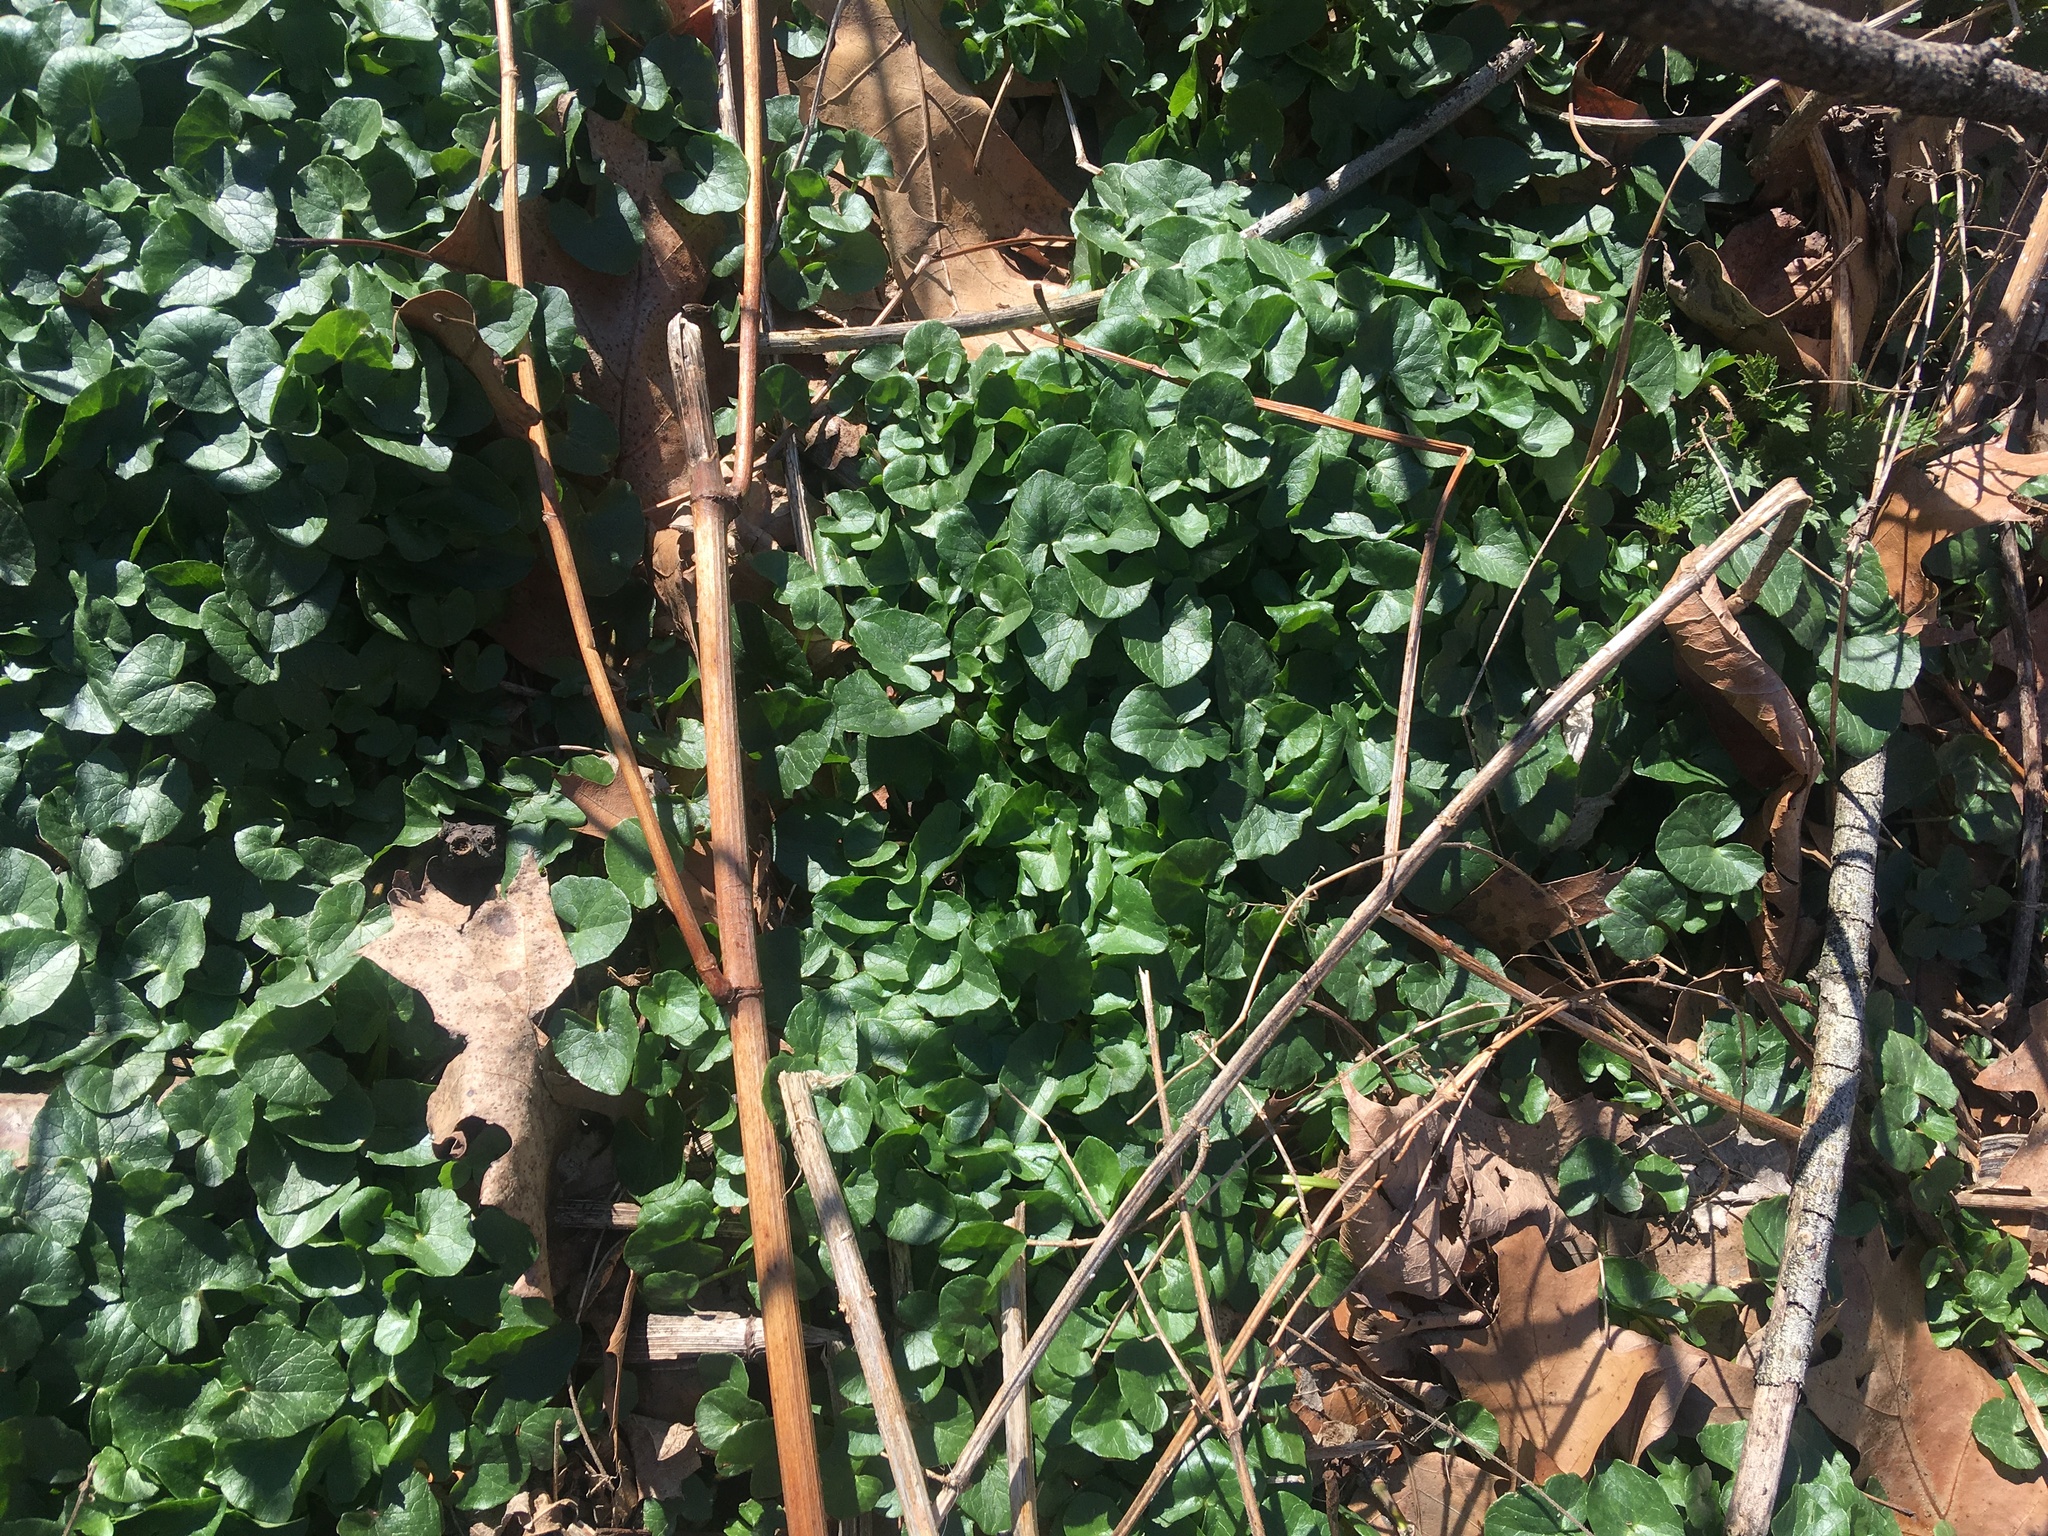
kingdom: Plantae
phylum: Tracheophyta
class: Magnoliopsida
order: Ranunculales
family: Ranunculaceae
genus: Ficaria
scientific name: Ficaria verna
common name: Lesser celandine
